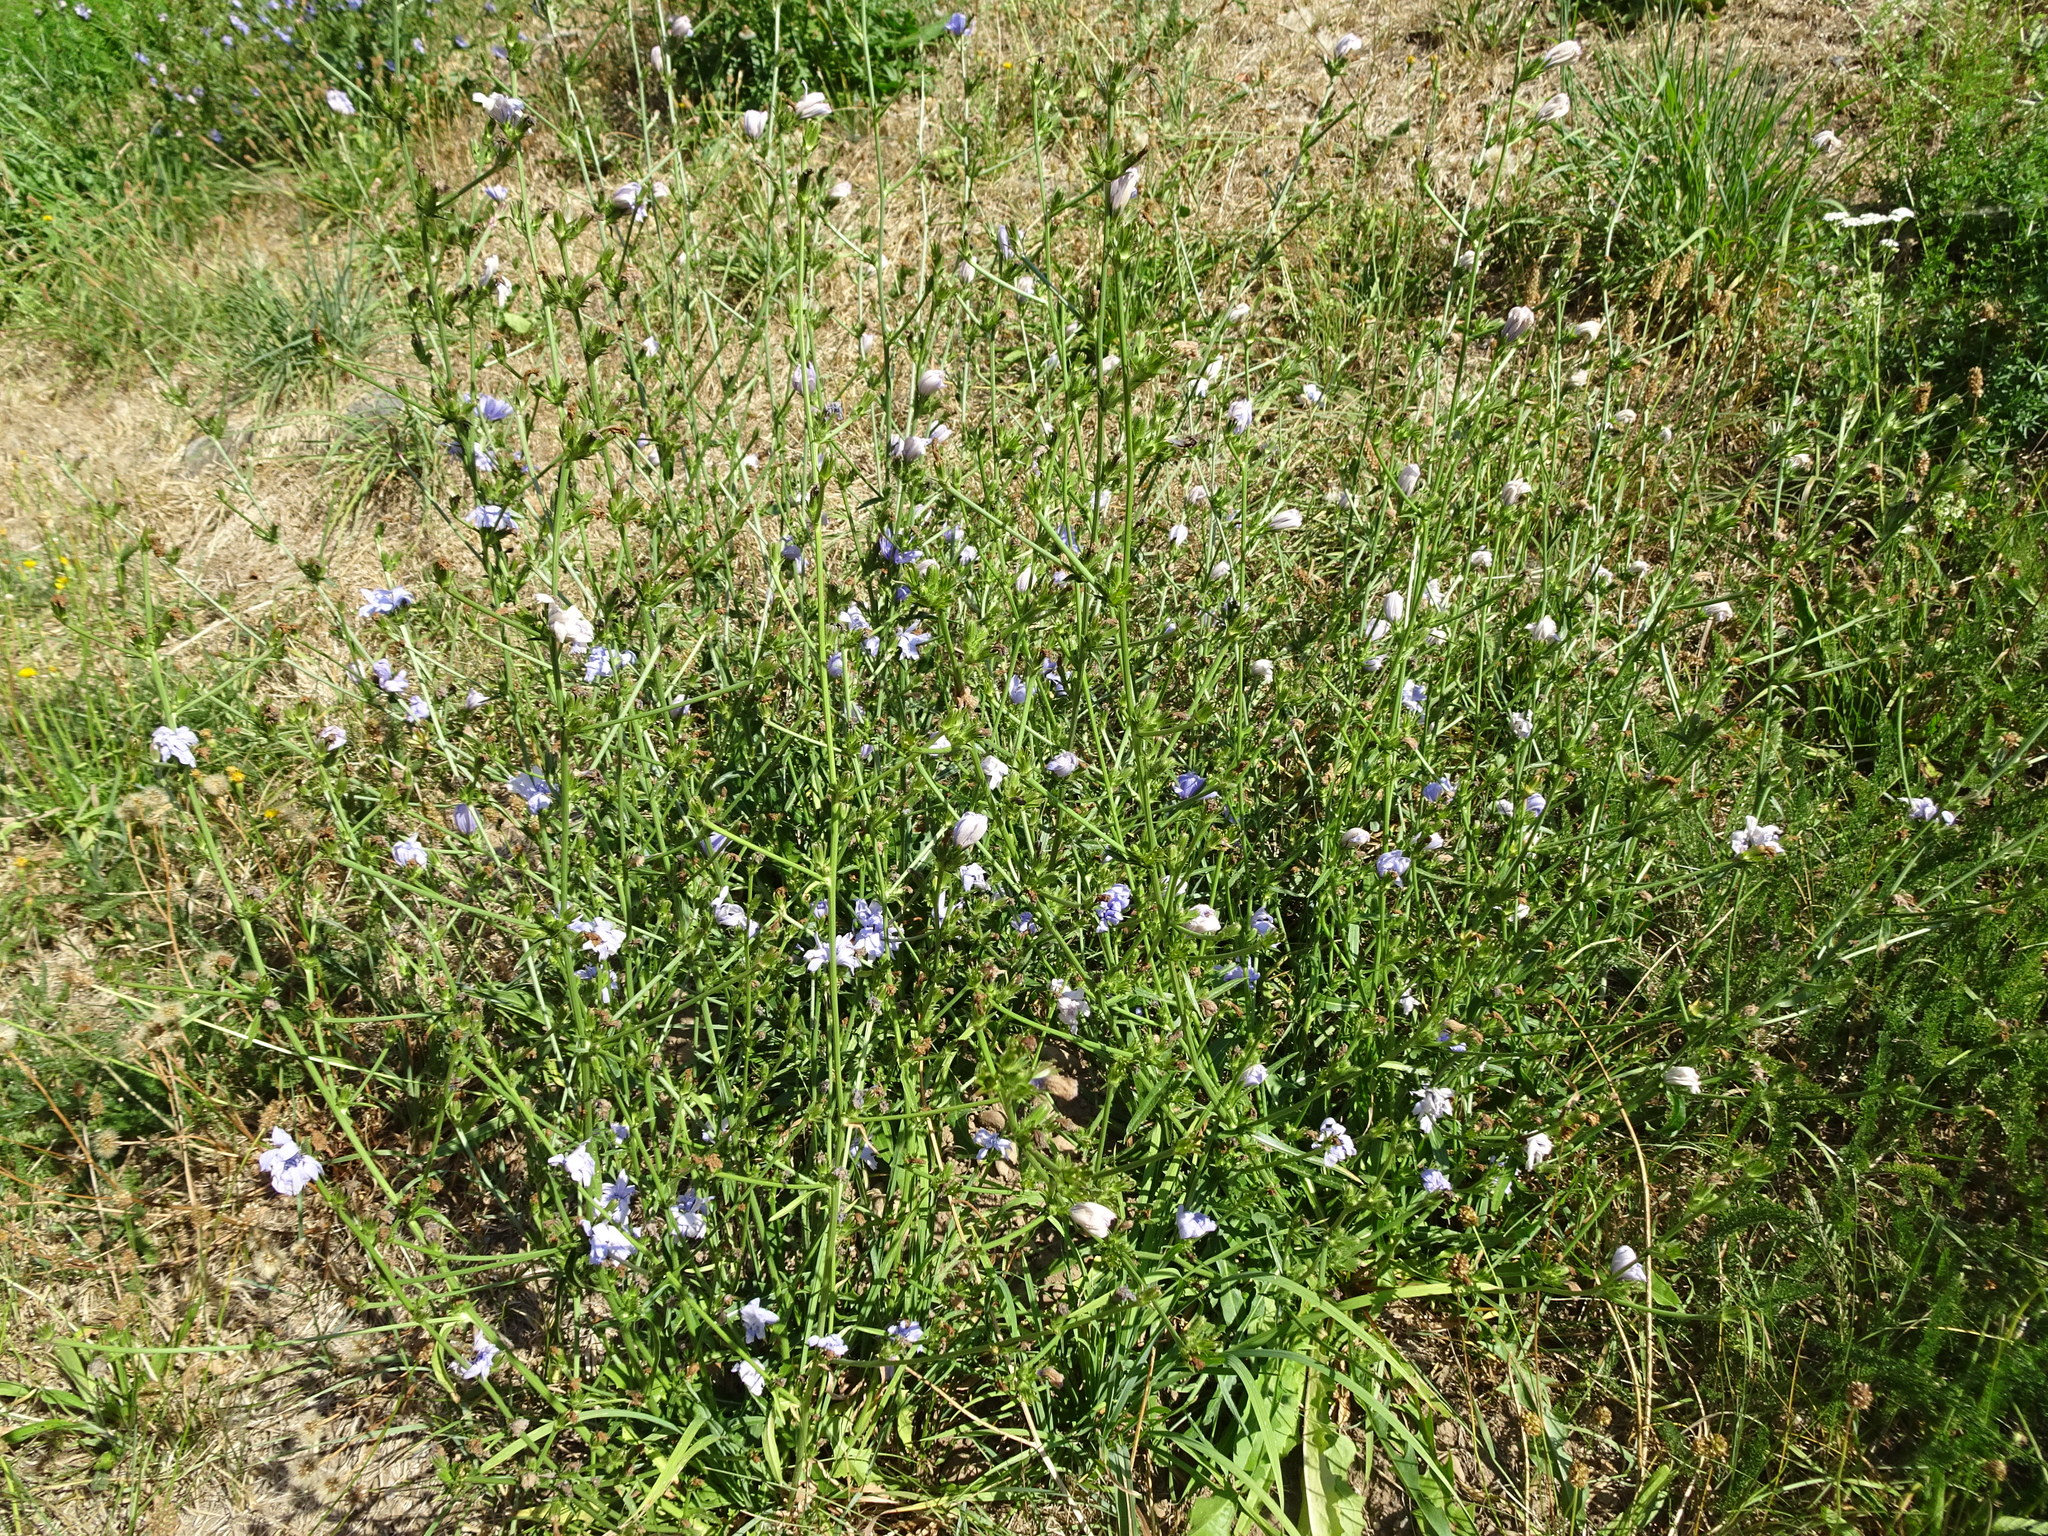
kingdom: Plantae
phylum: Tracheophyta
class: Magnoliopsida
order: Asterales
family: Asteraceae
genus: Cichorium
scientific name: Cichorium intybus
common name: Chicory
